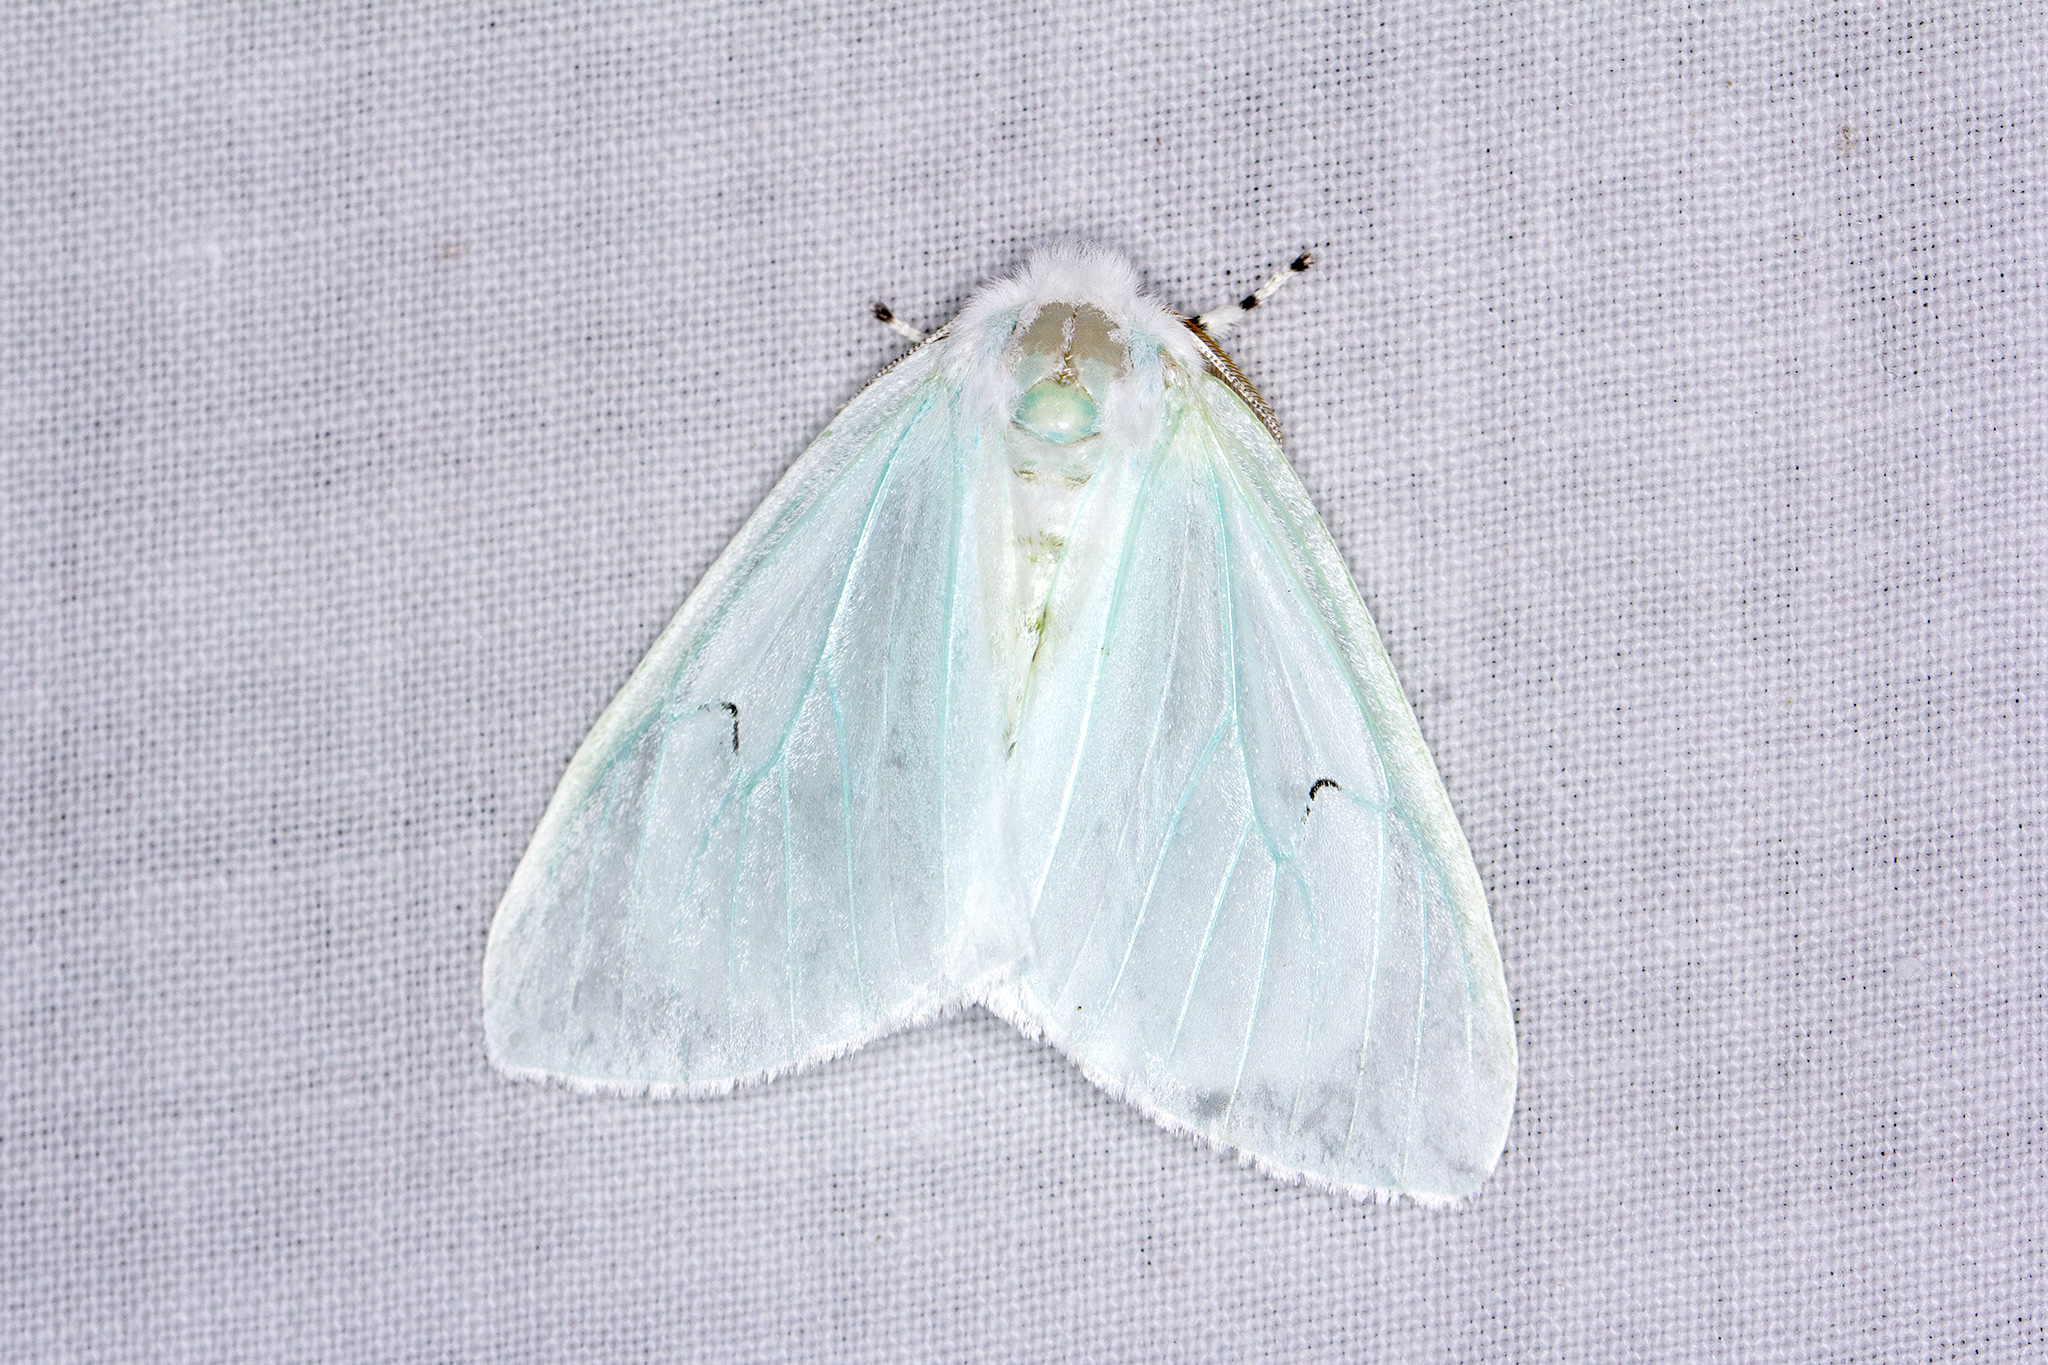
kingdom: Animalia
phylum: Arthropoda
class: Insecta
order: Lepidoptera
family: Erebidae
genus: Arctornis
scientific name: Arctornis l-nigrum
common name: Black v moth
